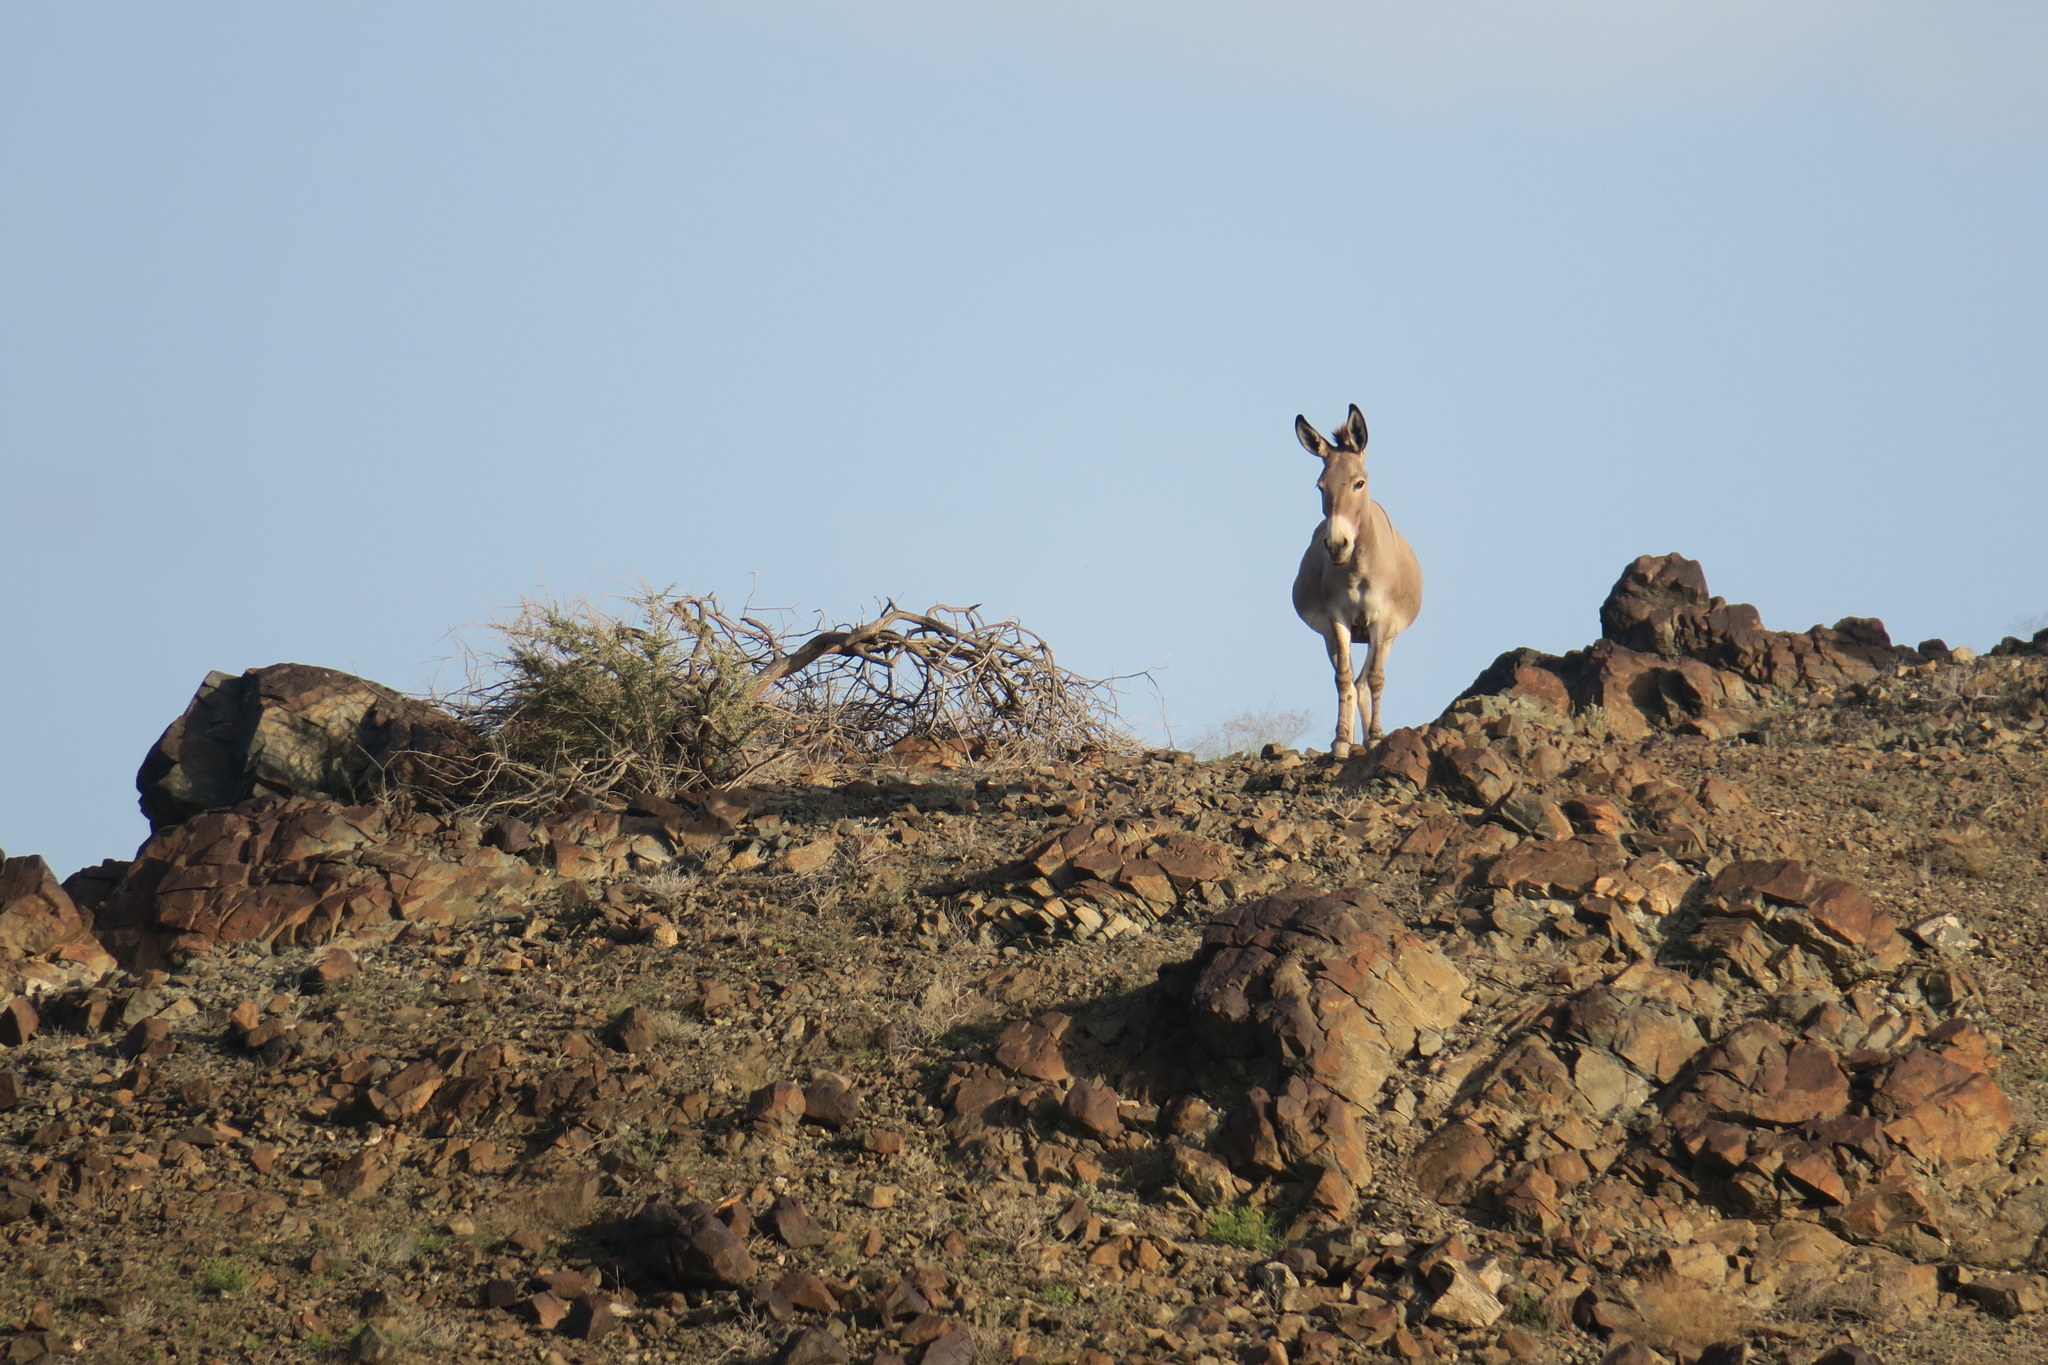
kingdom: Animalia
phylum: Chordata
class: Mammalia
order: Perissodactyla
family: Equidae
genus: Equus
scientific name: Equus asinus
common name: Ass
